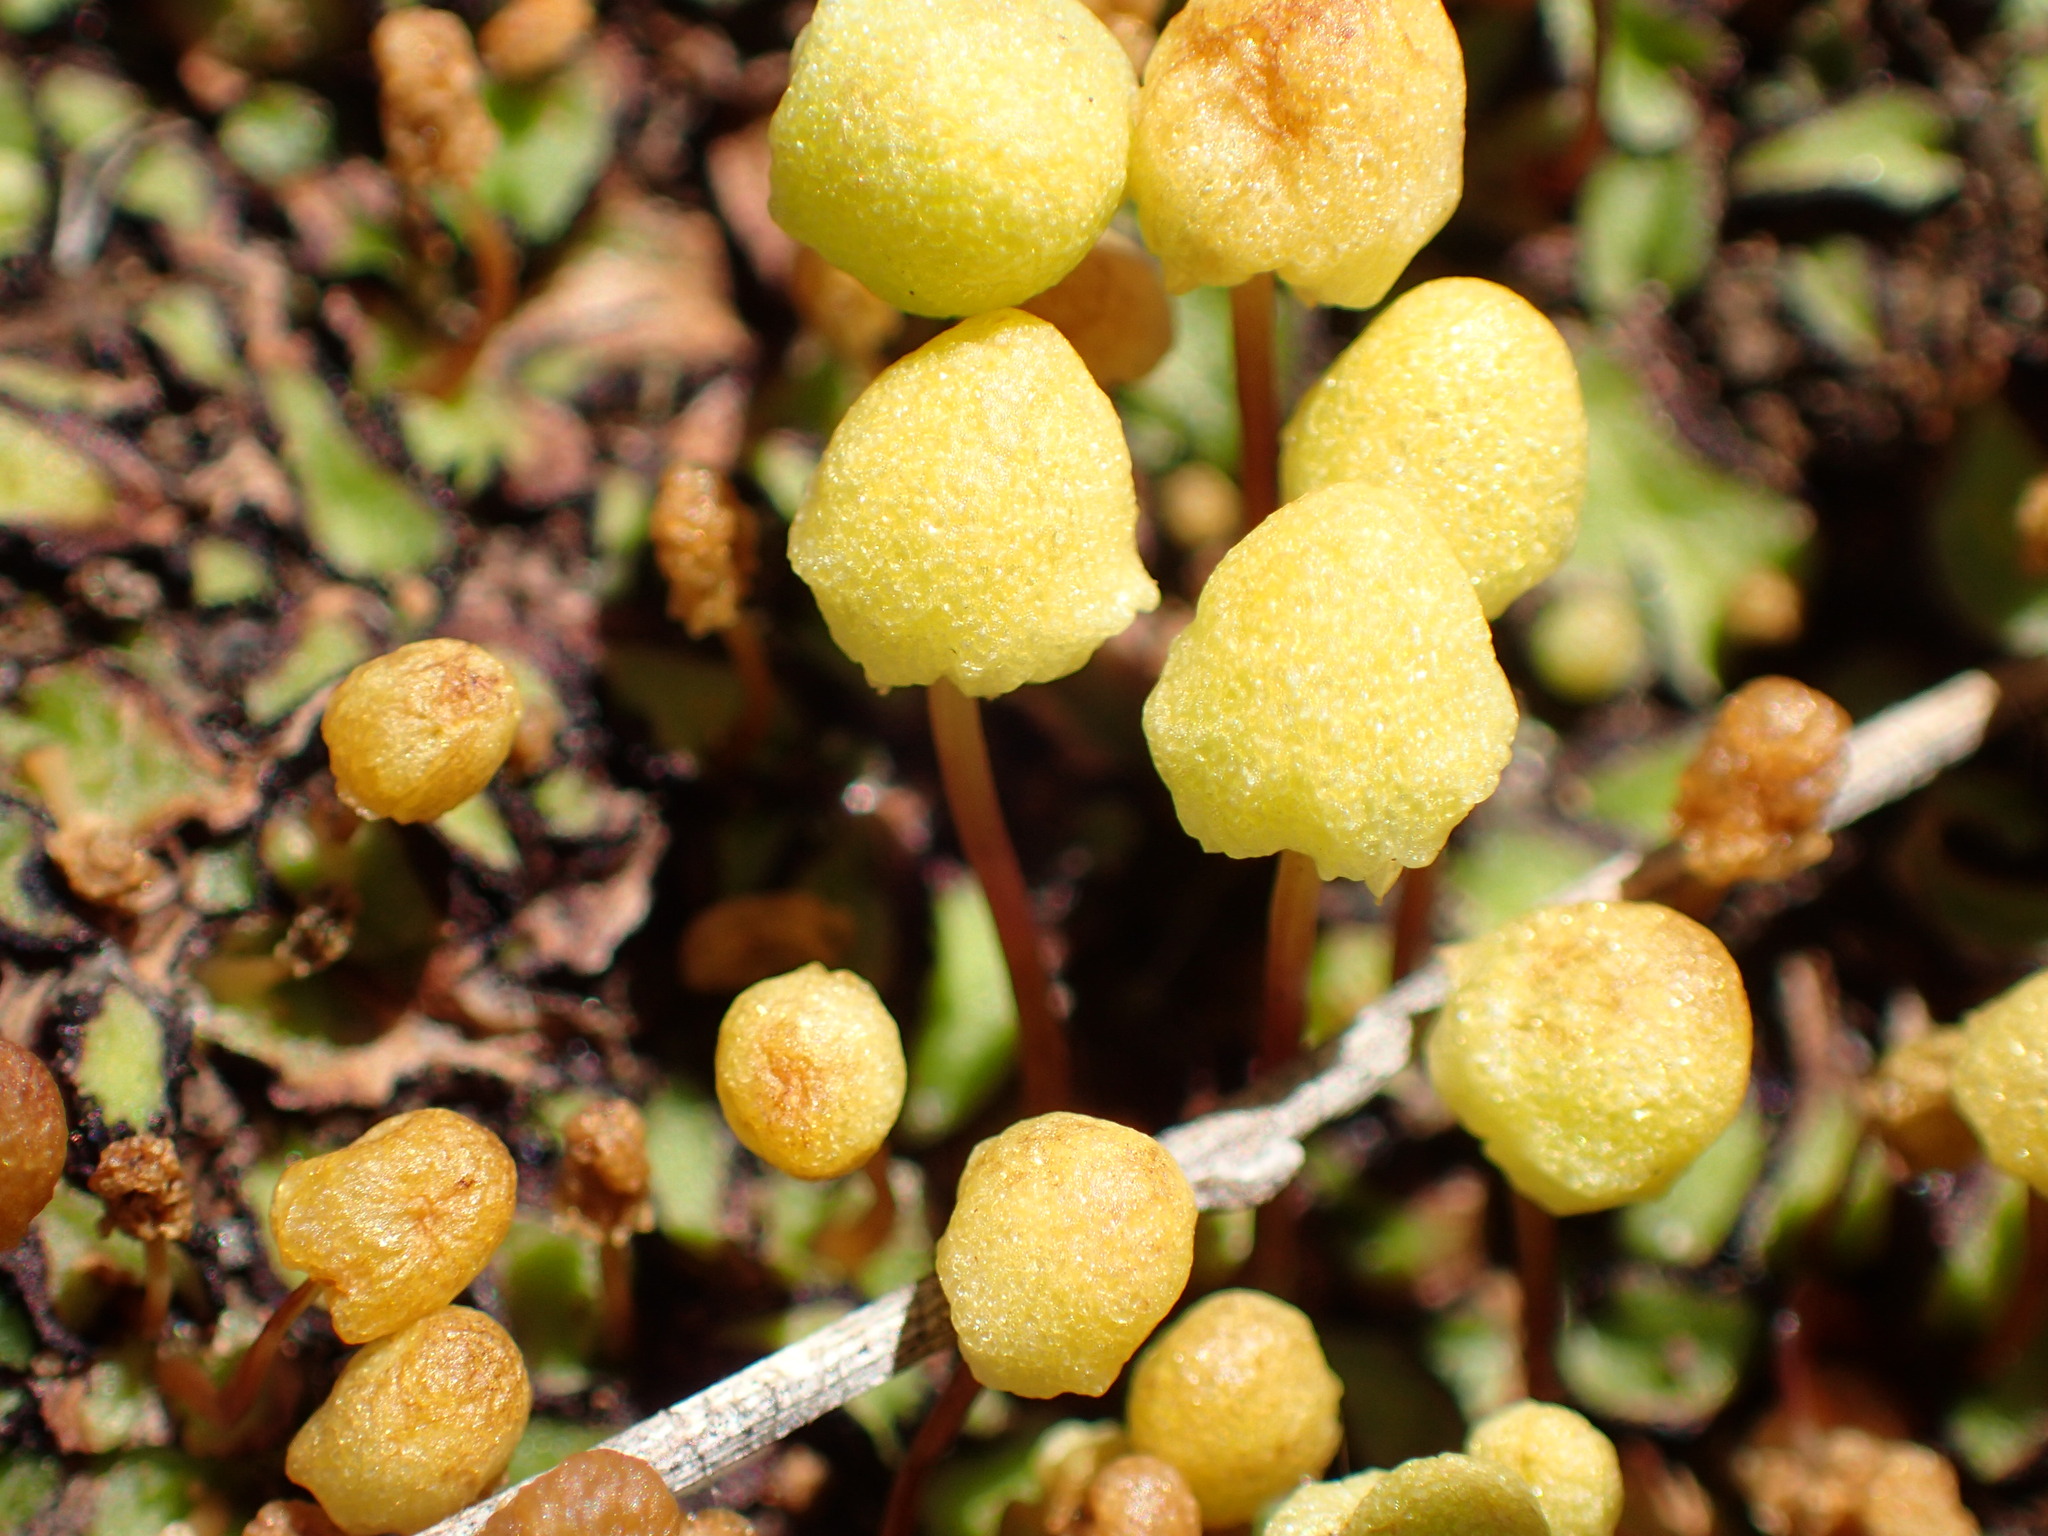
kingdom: Plantae
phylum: Marchantiophyta
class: Marchantiopsida
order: Marchantiales
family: Aytoniaceae
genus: Asterella
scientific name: Asterella palmeri
